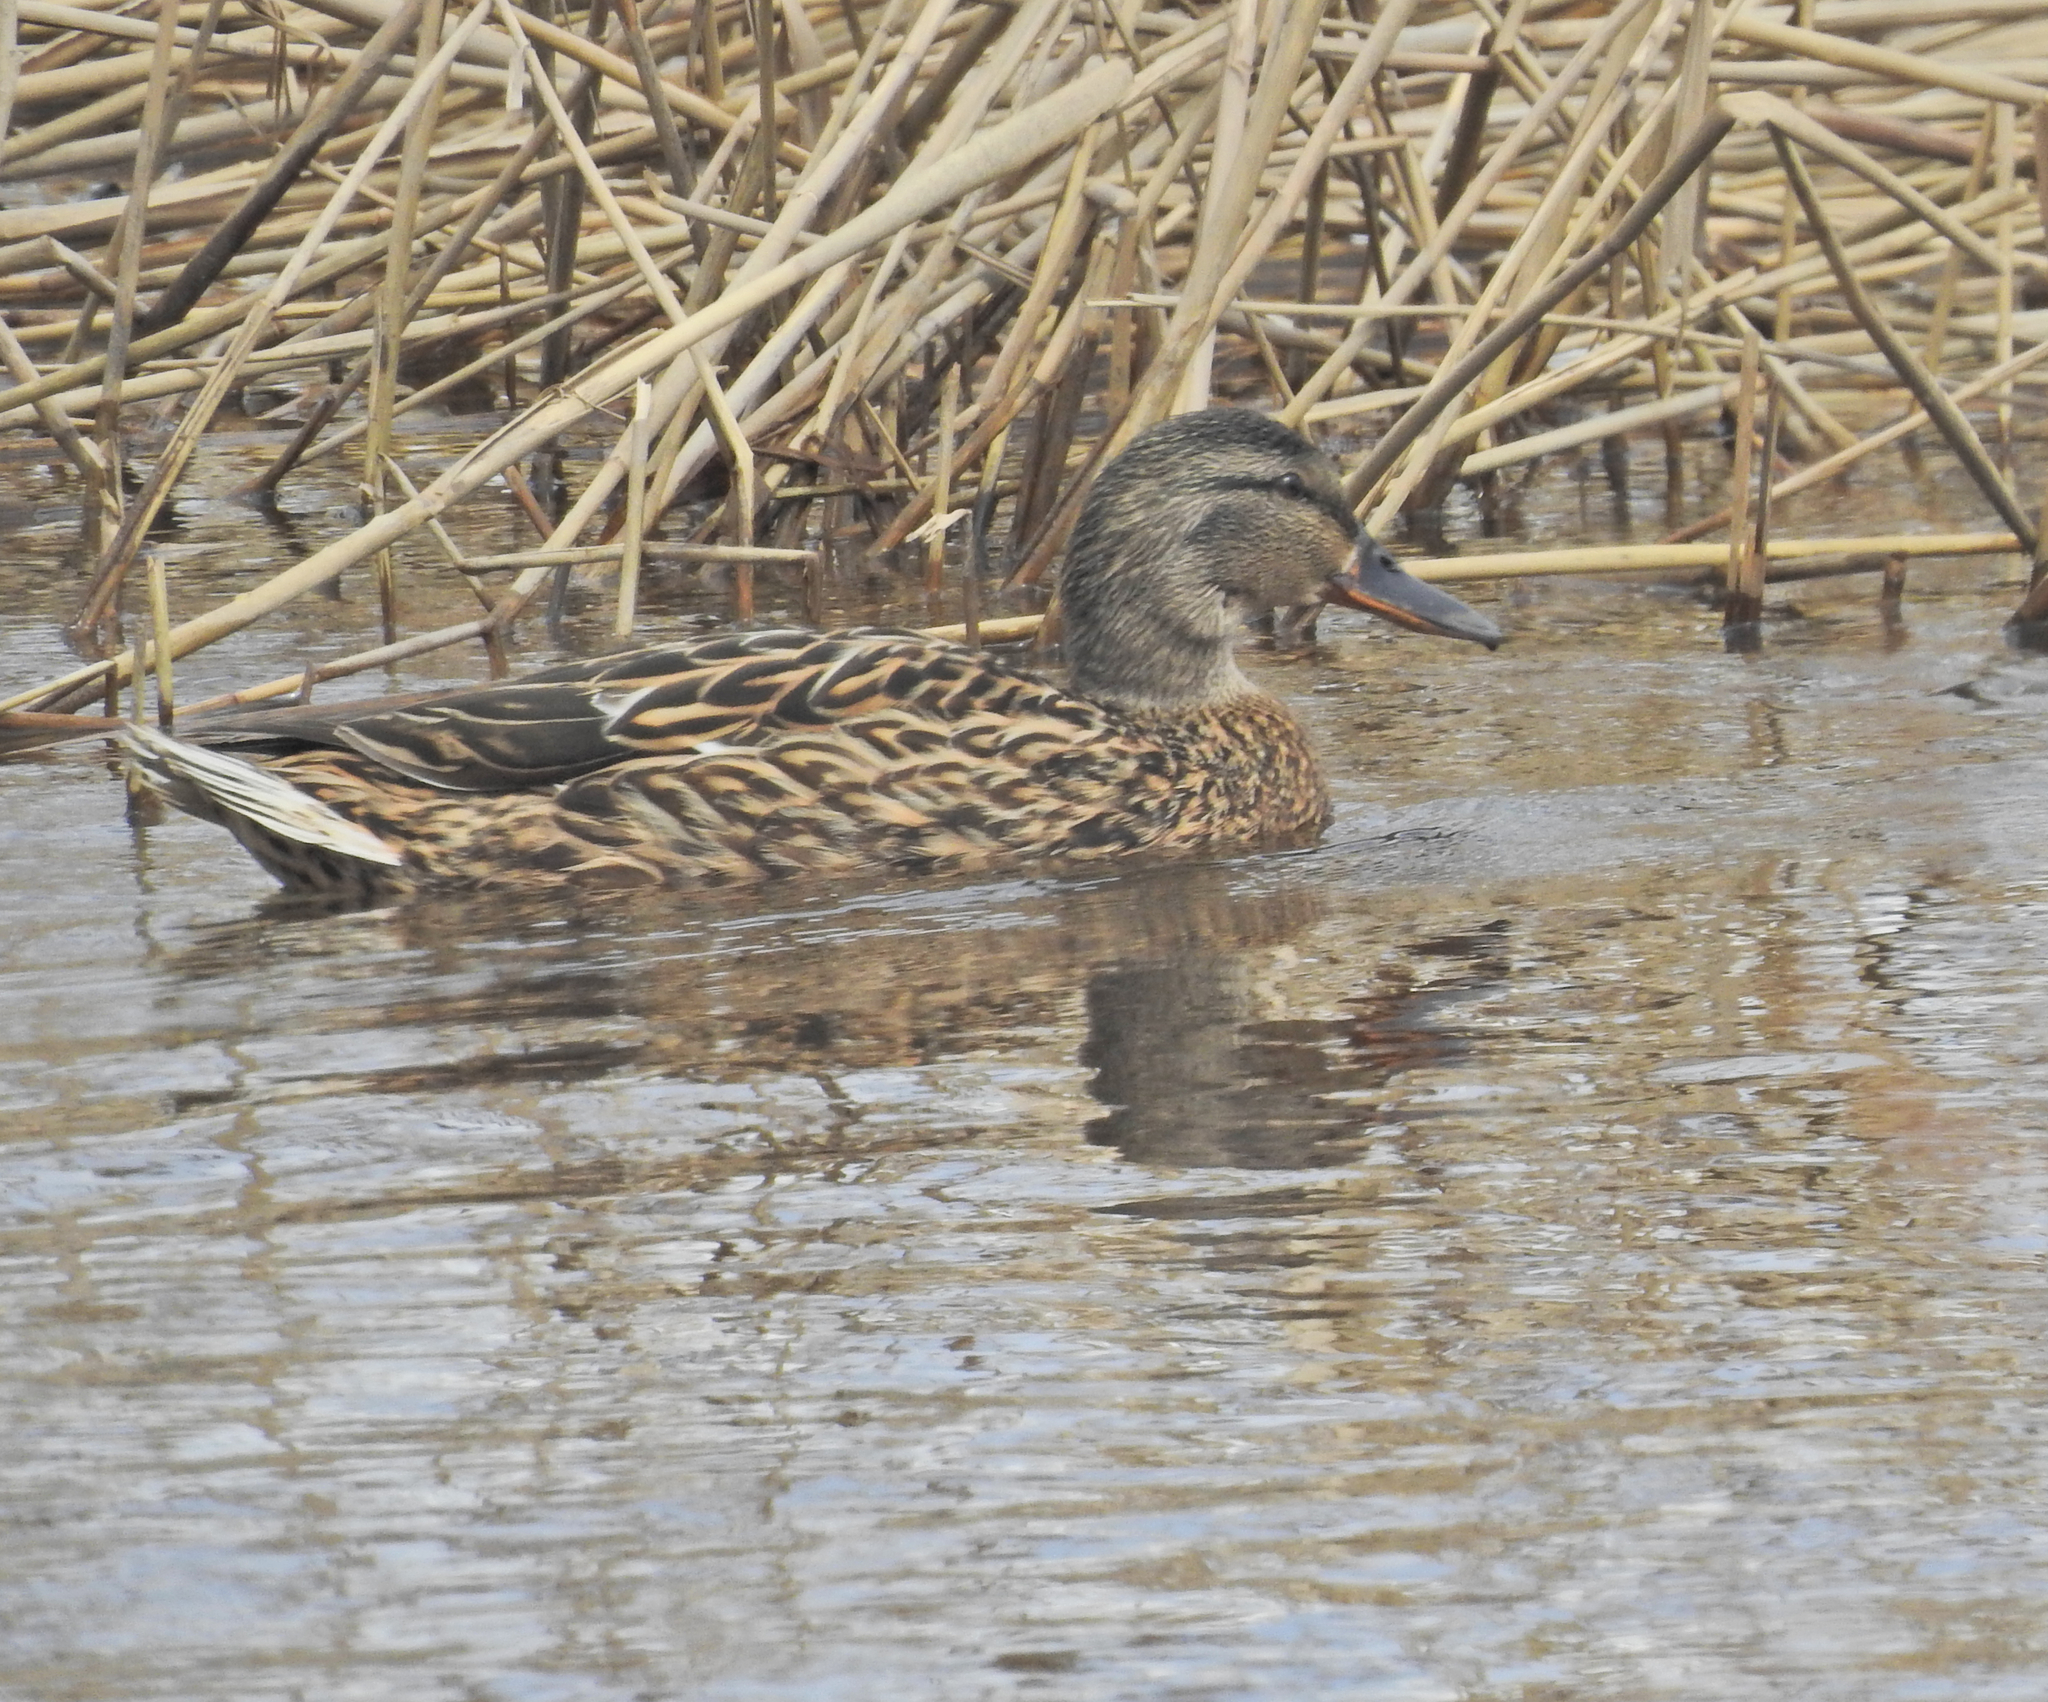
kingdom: Animalia
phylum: Chordata
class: Aves
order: Anseriformes
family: Anatidae
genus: Anas
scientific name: Anas platyrhynchos
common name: Mallard
